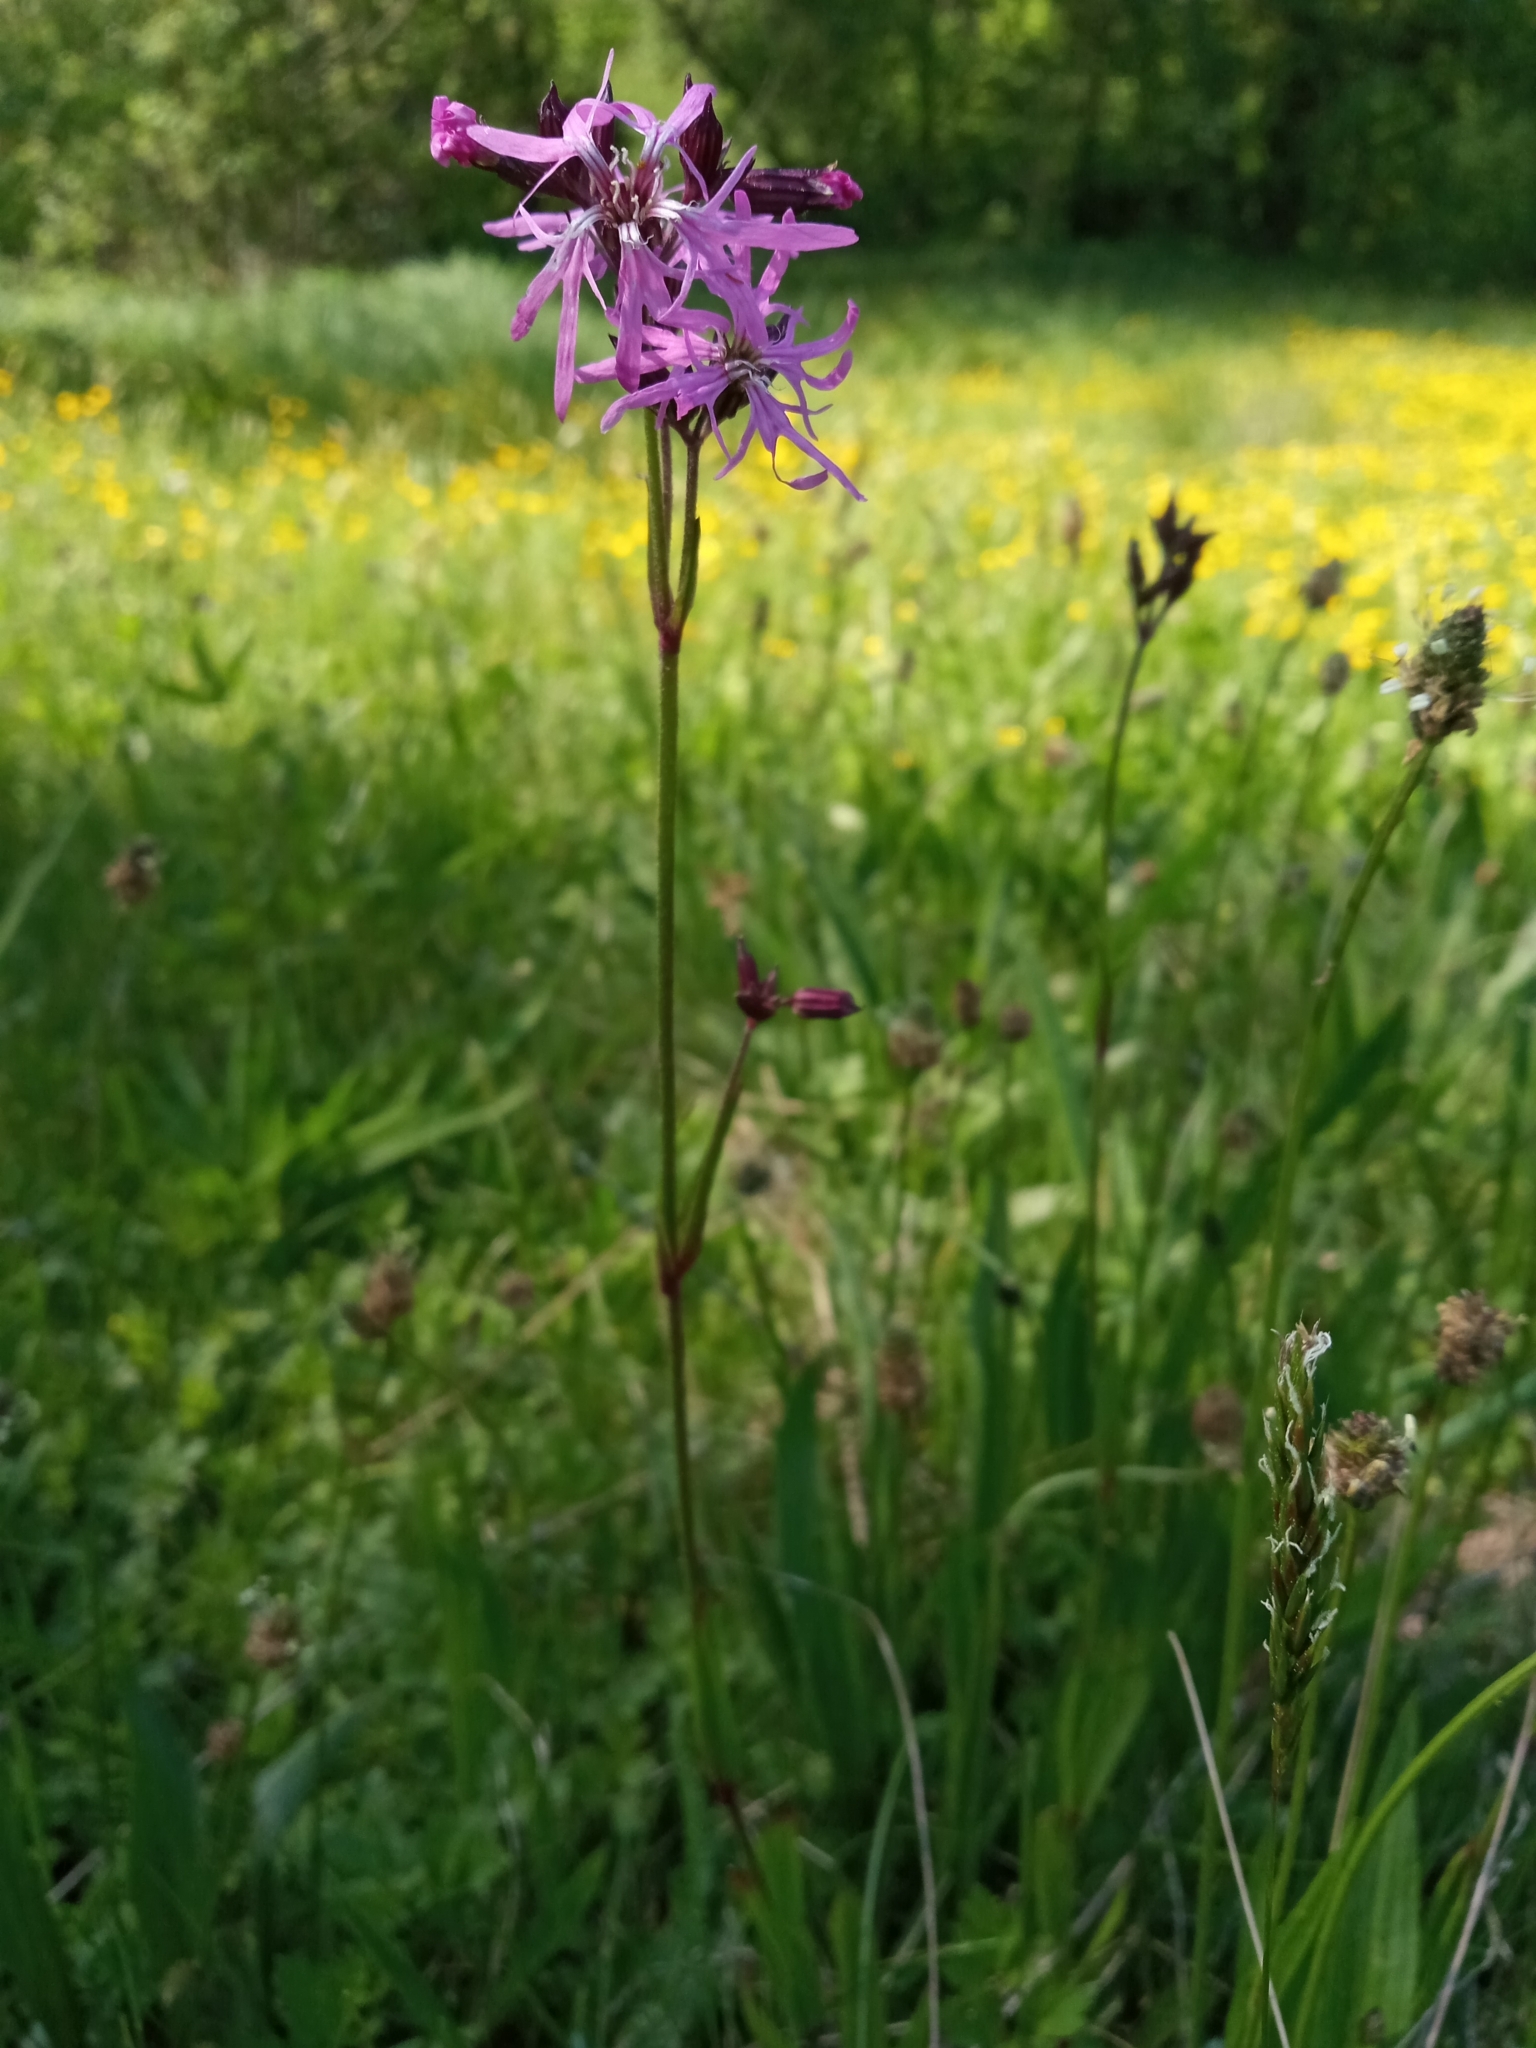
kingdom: Plantae
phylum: Tracheophyta
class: Magnoliopsida
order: Caryophyllales
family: Caryophyllaceae
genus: Silene
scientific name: Silene flos-cuculi
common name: Ragged-robin
